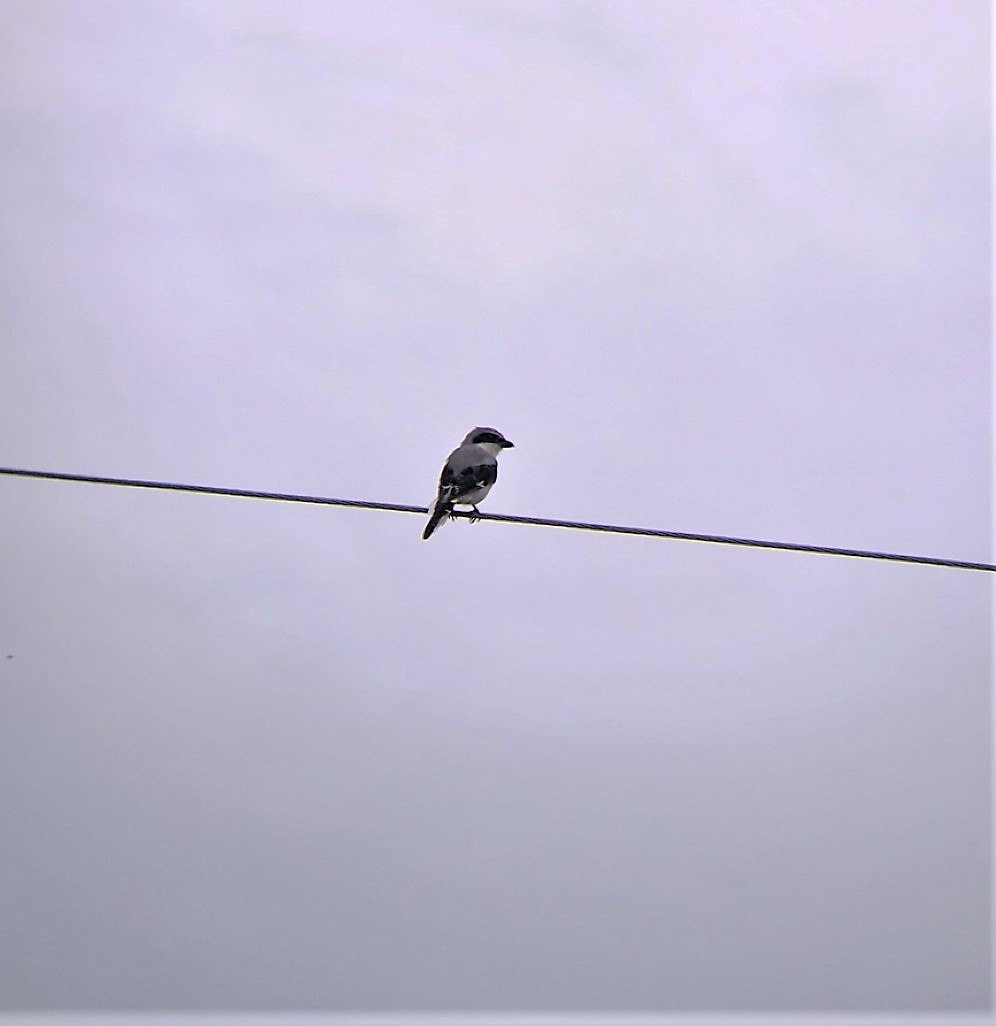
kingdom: Animalia
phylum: Chordata
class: Aves
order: Passeriformes
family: Laniidae
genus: Lanius
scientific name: Lanius ludovicianus
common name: Loggerhead shrike
